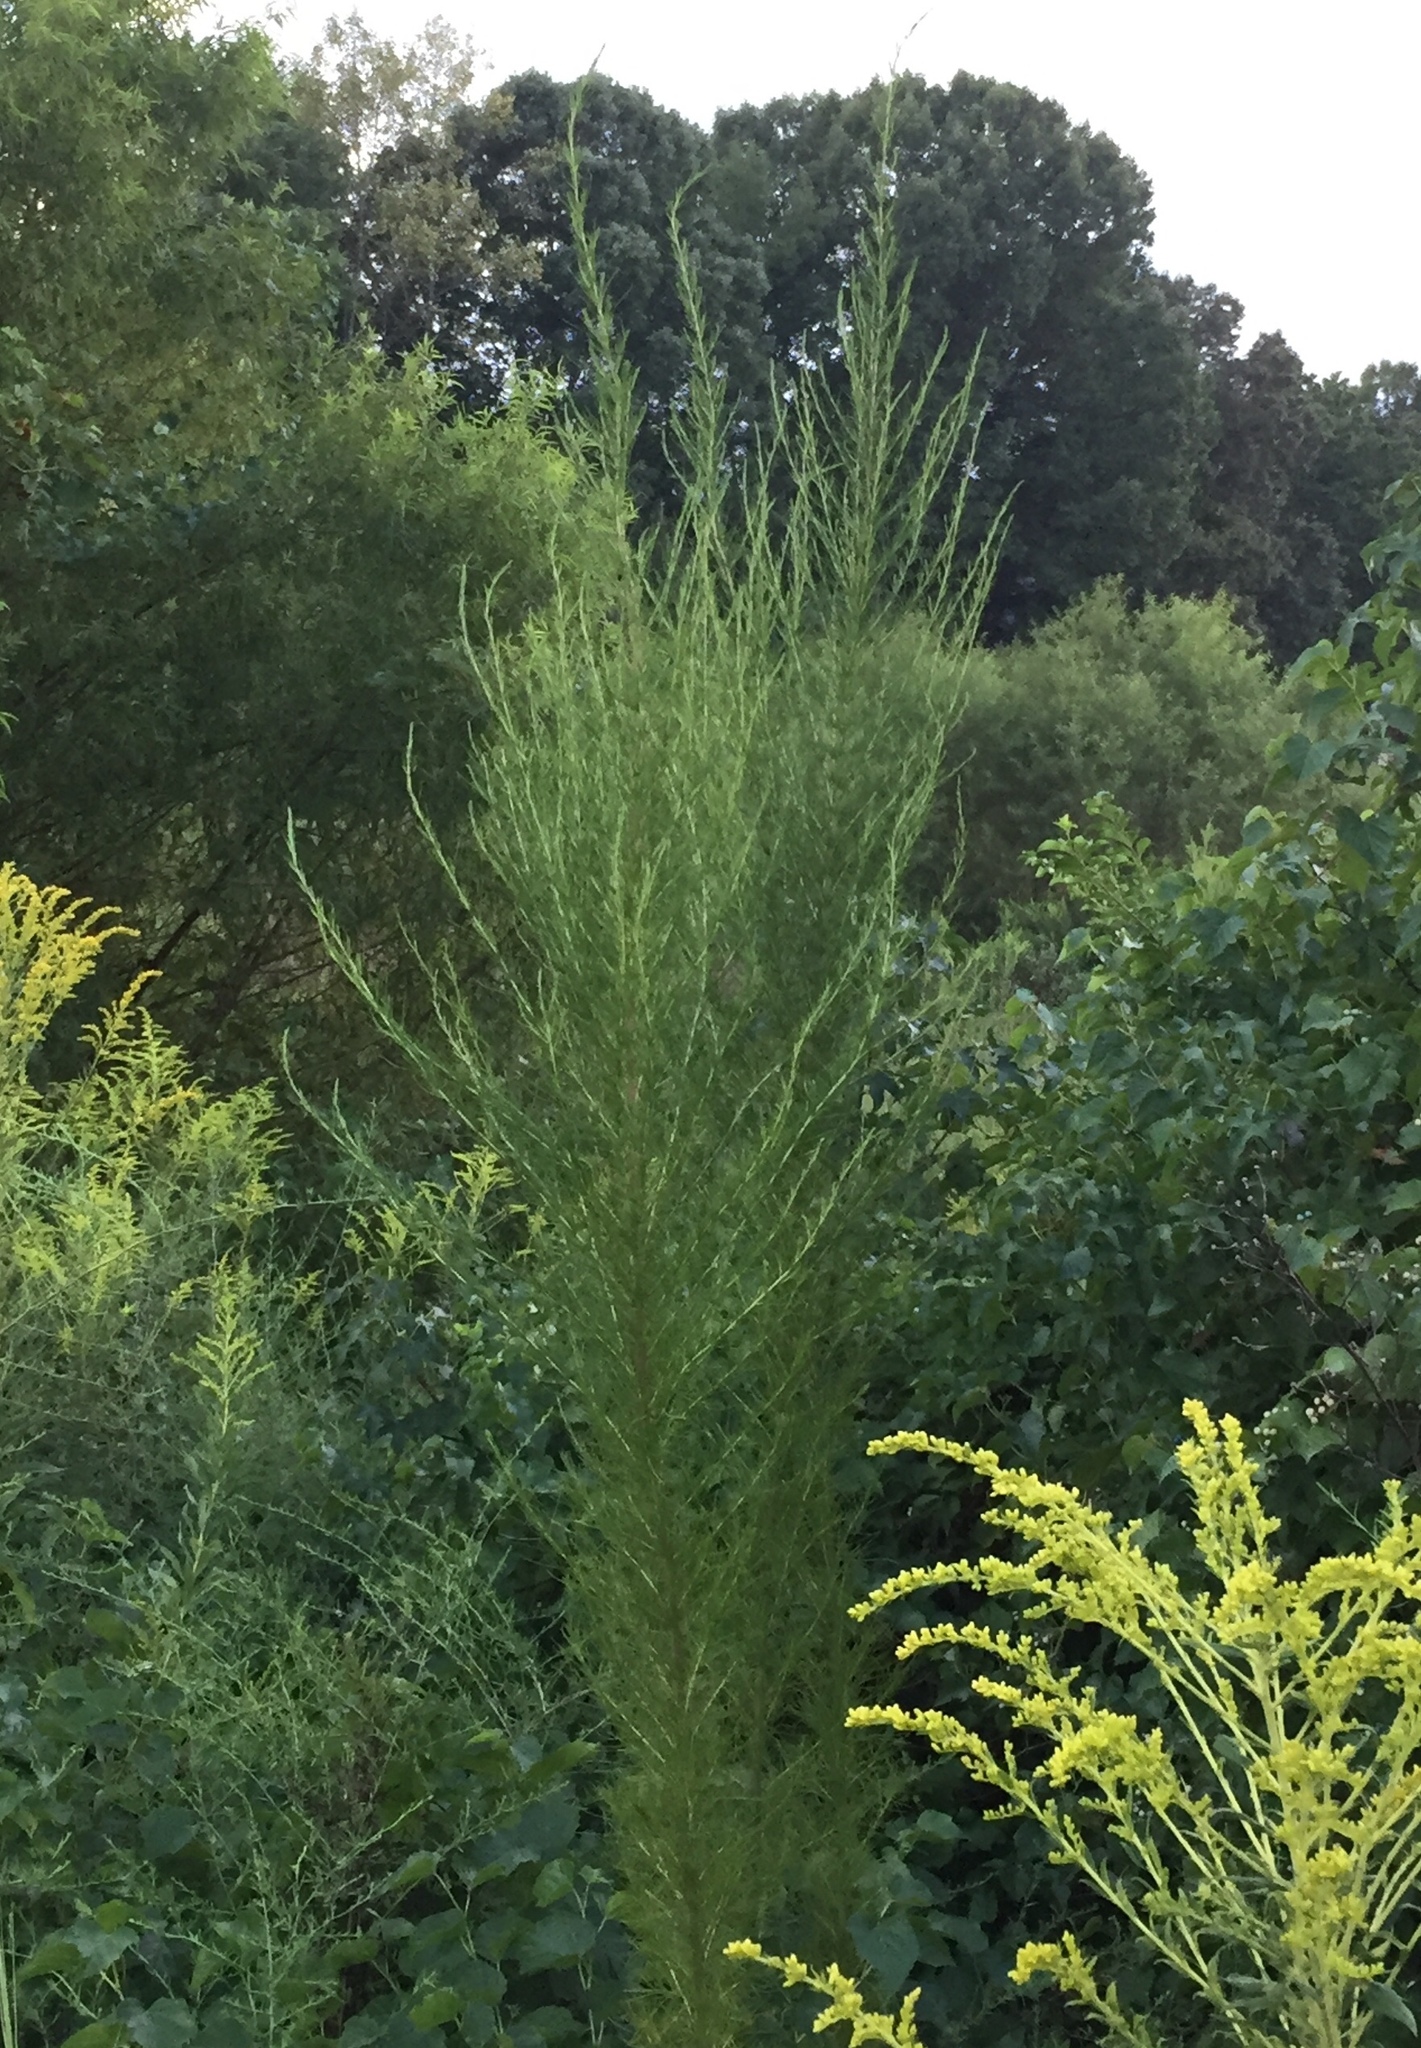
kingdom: Plantae
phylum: Tracheophyta
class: Magnoliopsida
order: Asterales
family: Asteraceae
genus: Eupatorium
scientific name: Eupatorium capillifolium
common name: Dog-fennel
